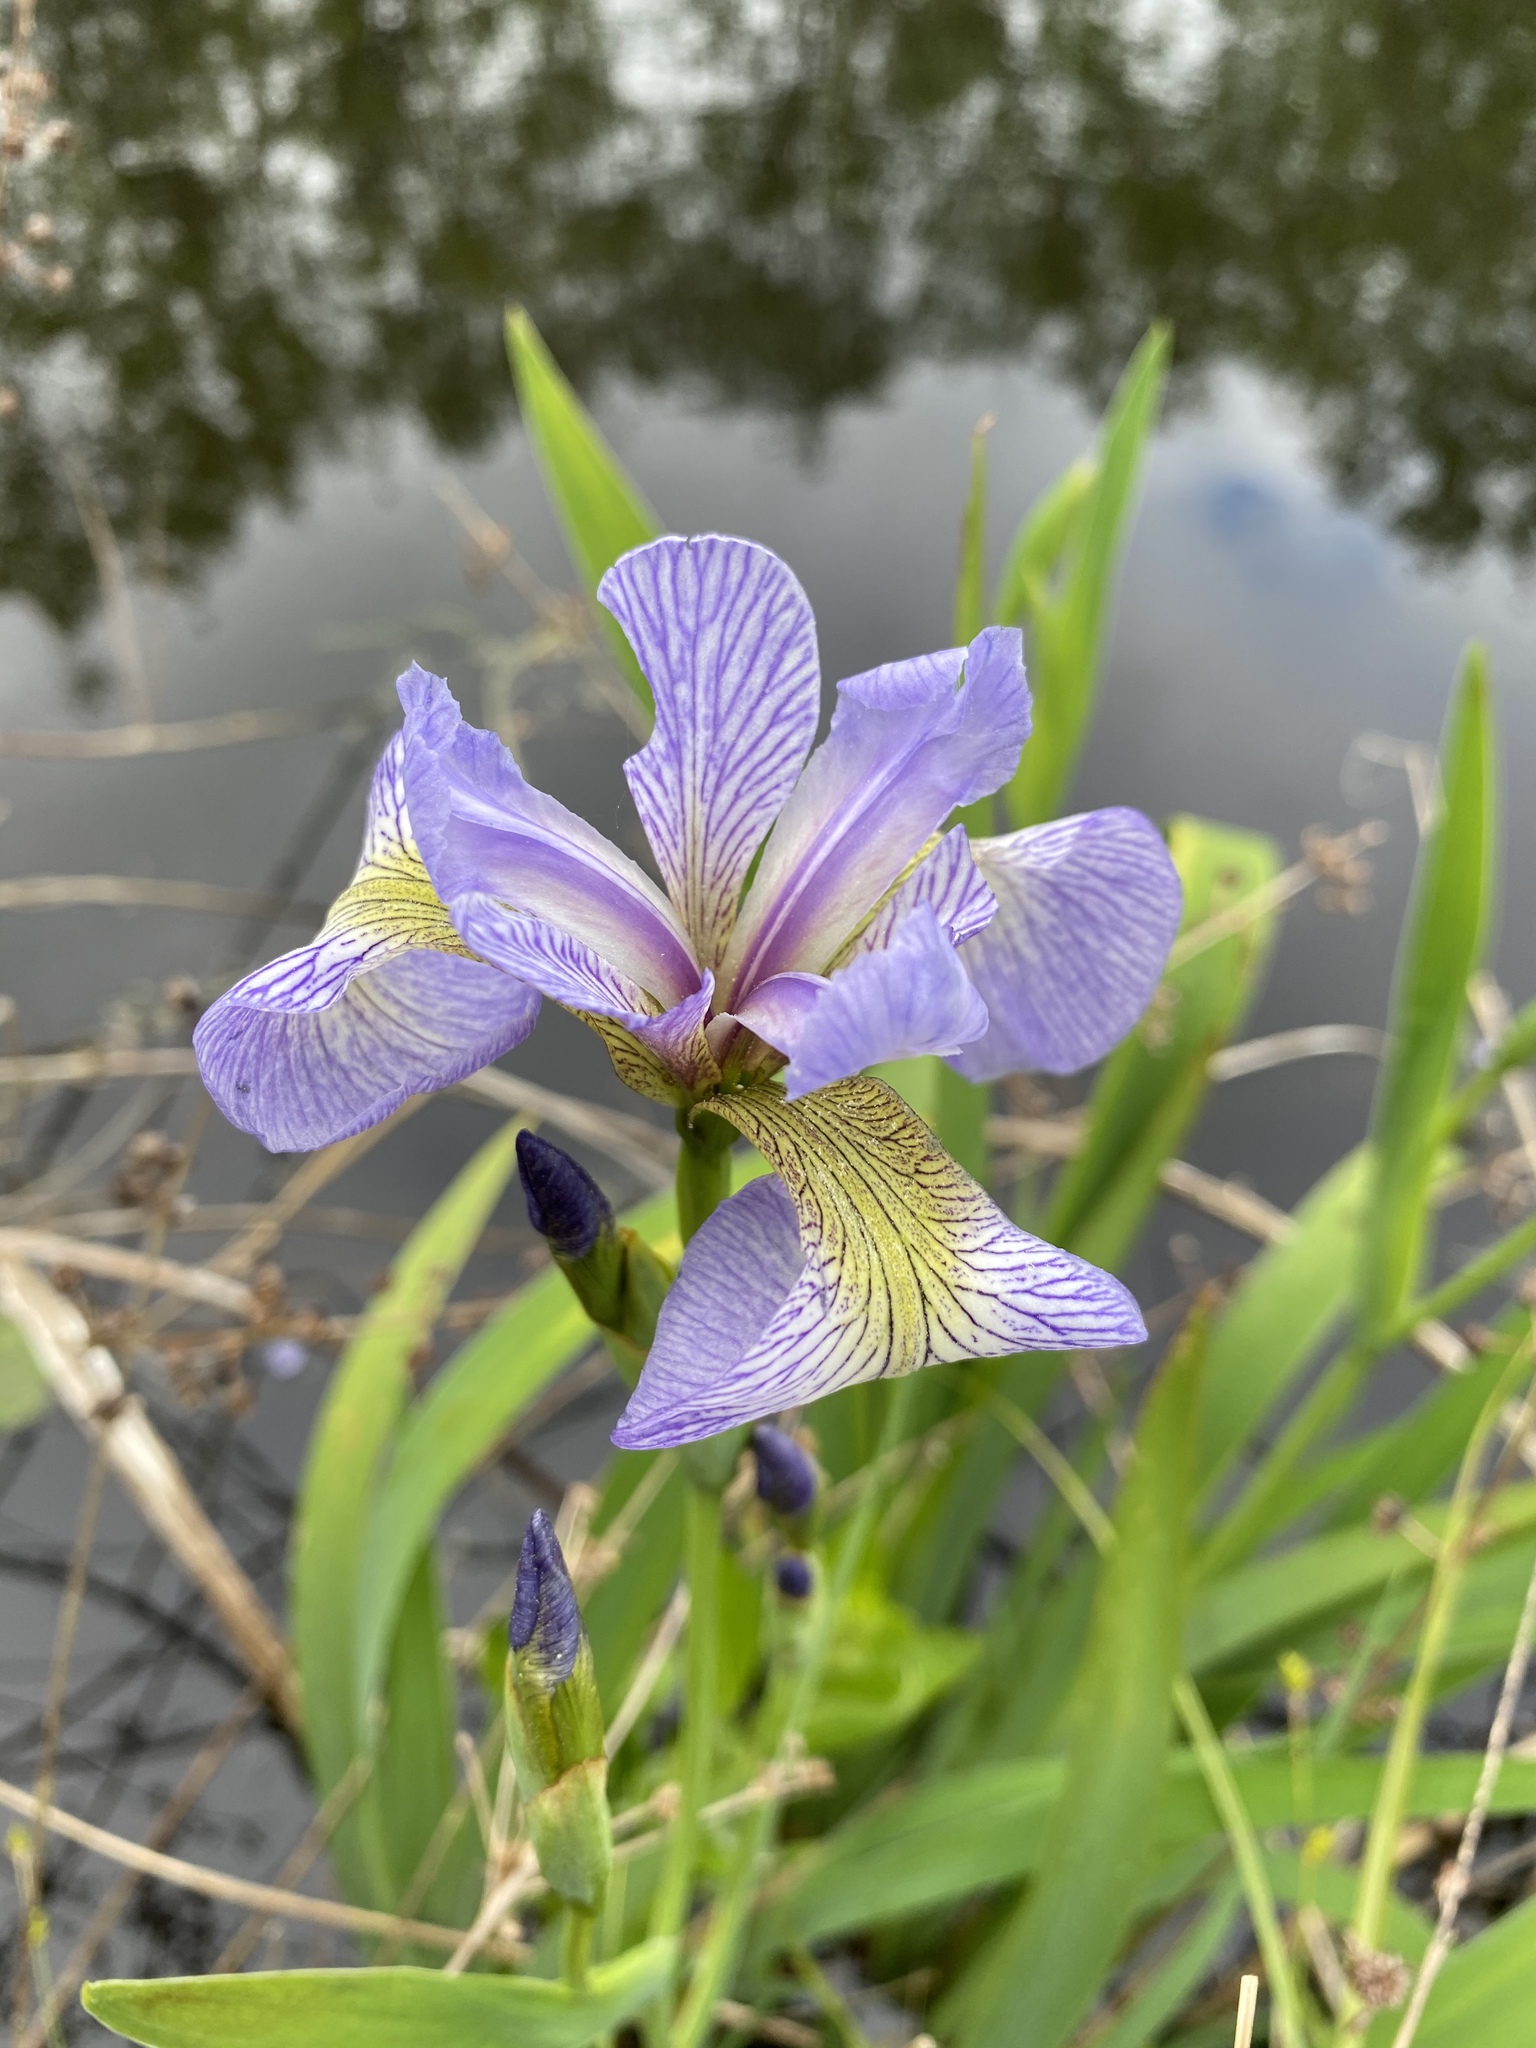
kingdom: Plantae
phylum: Tracheophyta
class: Liliopsida
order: Asparagales
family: Iridaceae
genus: Iris
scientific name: Iris versicolor
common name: Purple iris
